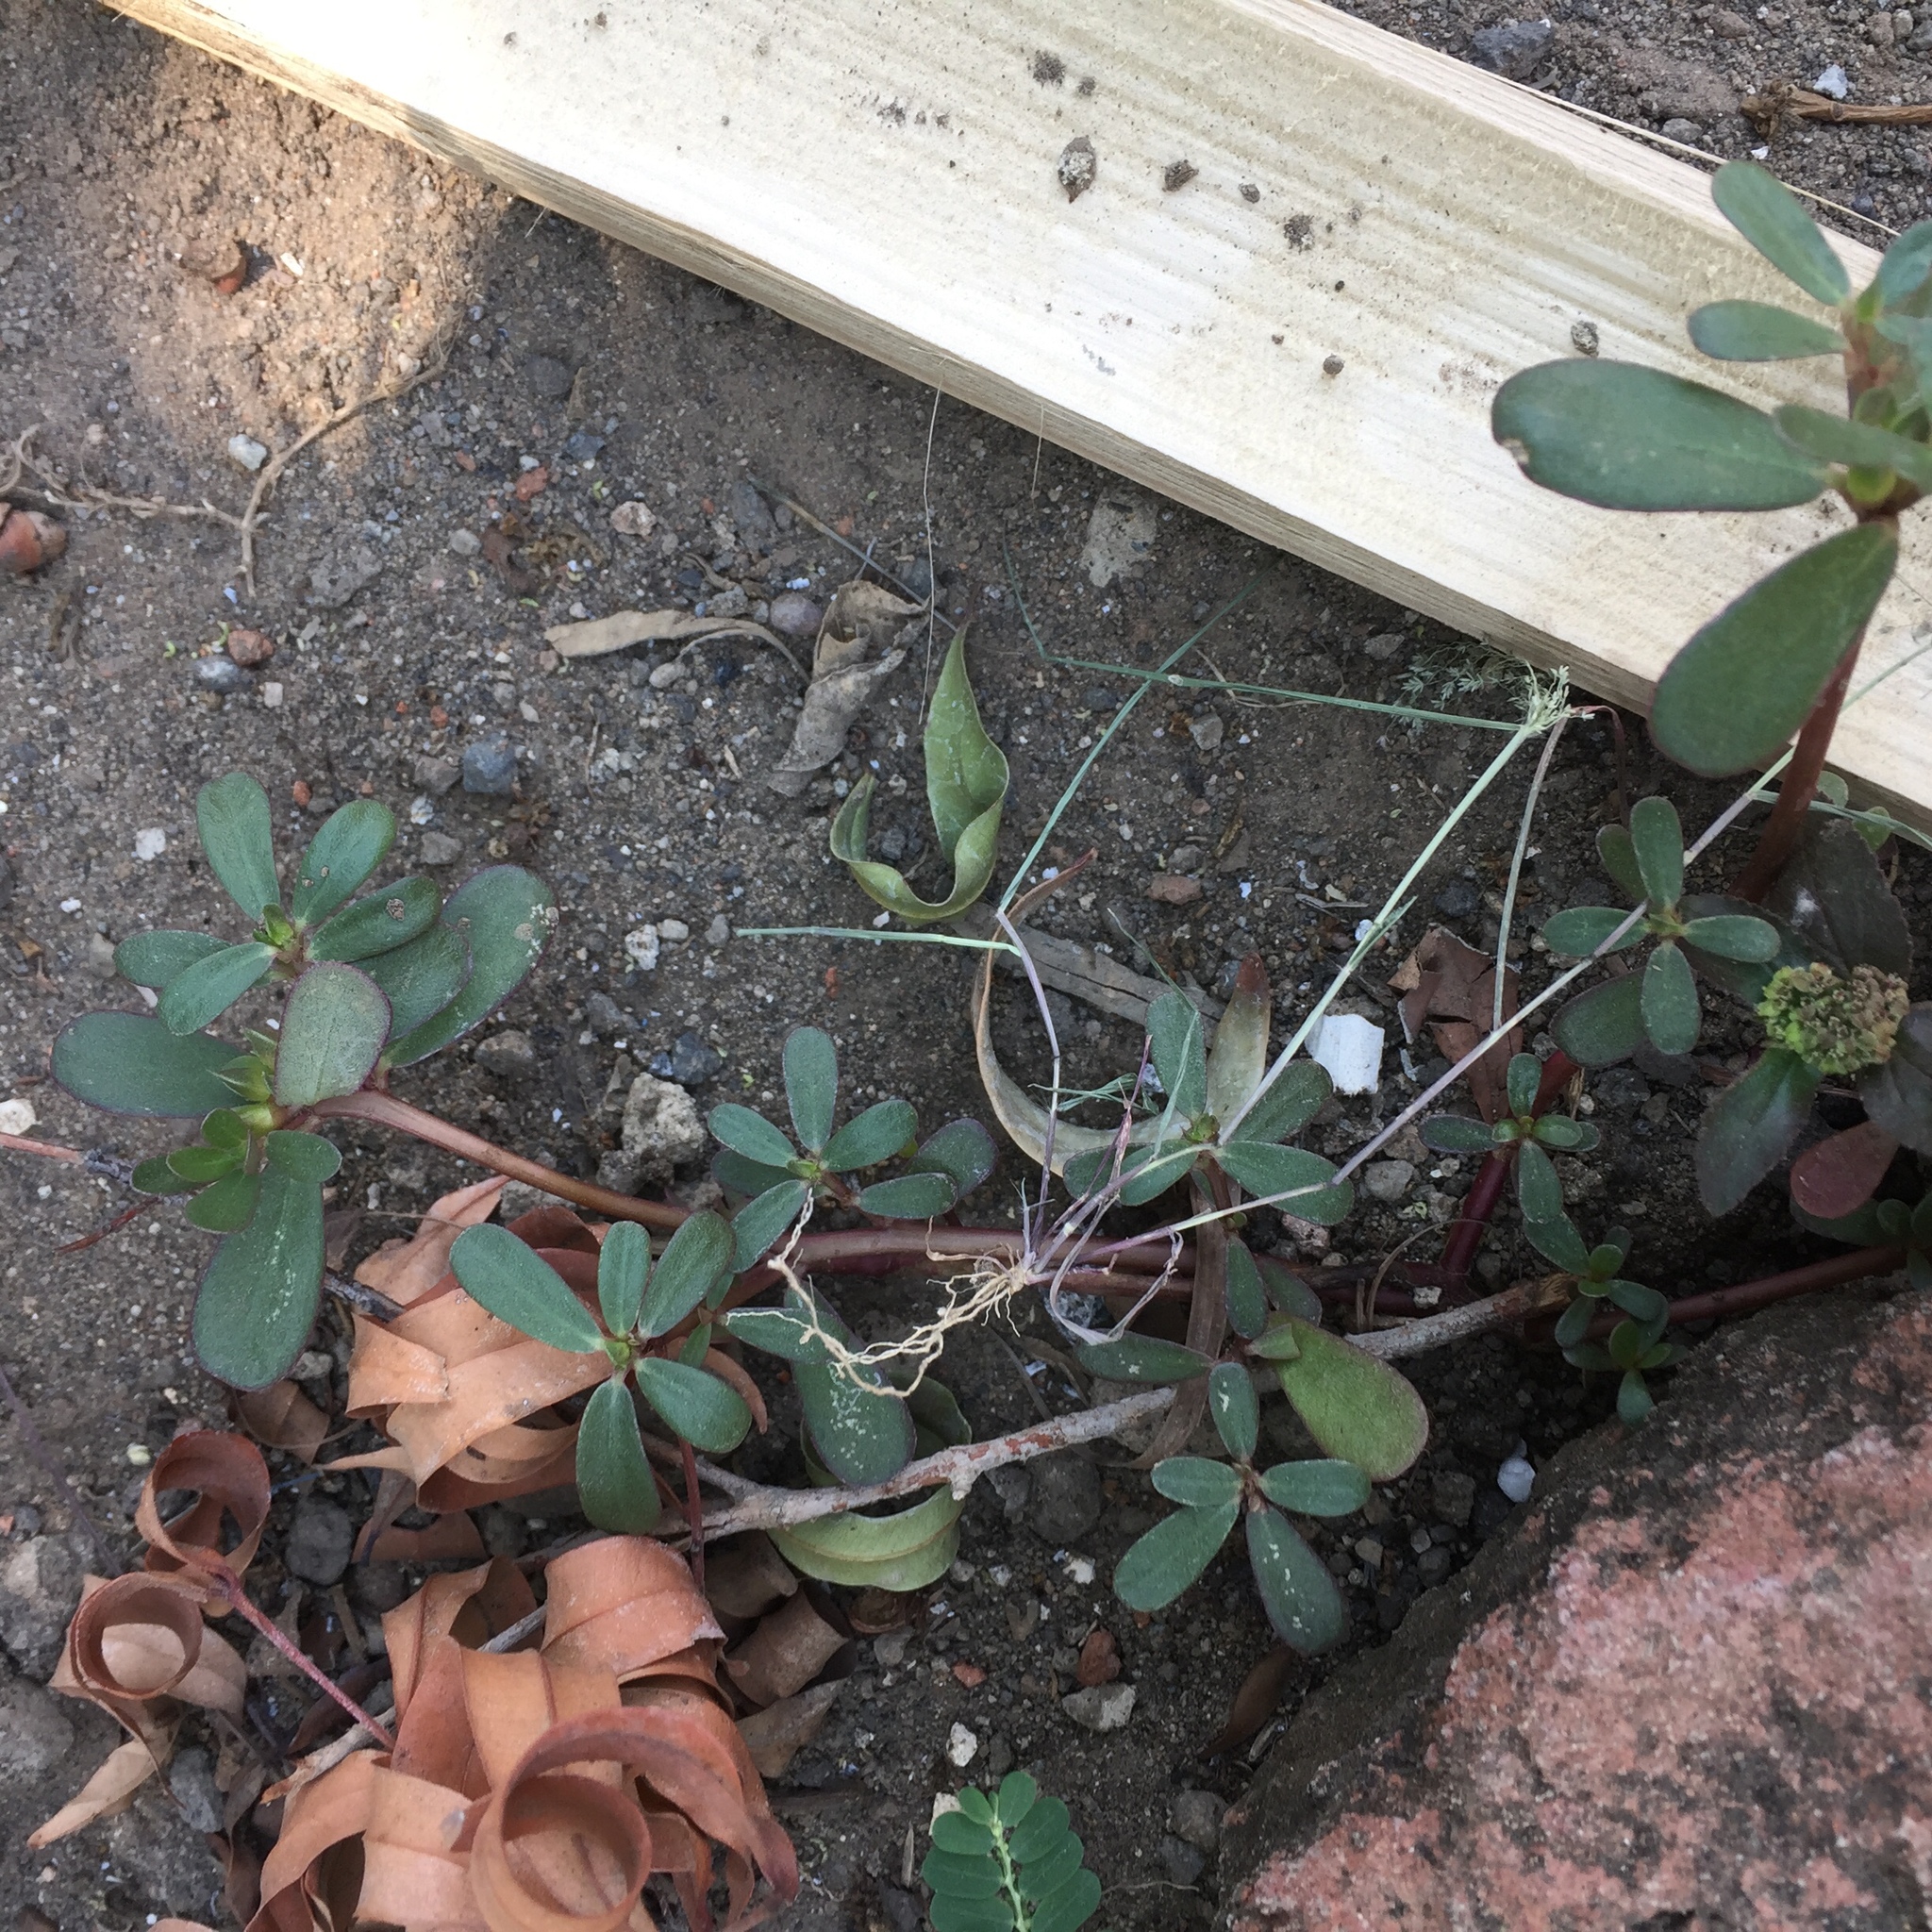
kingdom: Plantae
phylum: Tracheophyta
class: Magnoliopsida
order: Caryophyllales
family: Portulacaceae
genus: Portulaca
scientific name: Portulaca oleracea
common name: Common purslane
